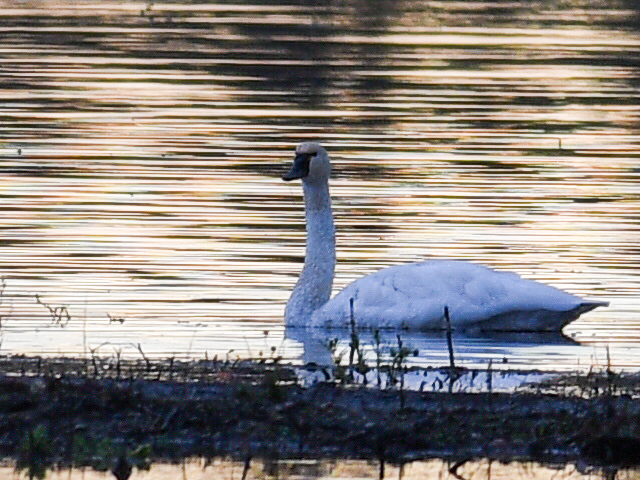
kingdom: Animalia
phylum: Chordata
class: Aves
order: Anseriformes
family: Anatidae
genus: Cygnus
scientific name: Cygnus columbianus
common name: Tundra swan
